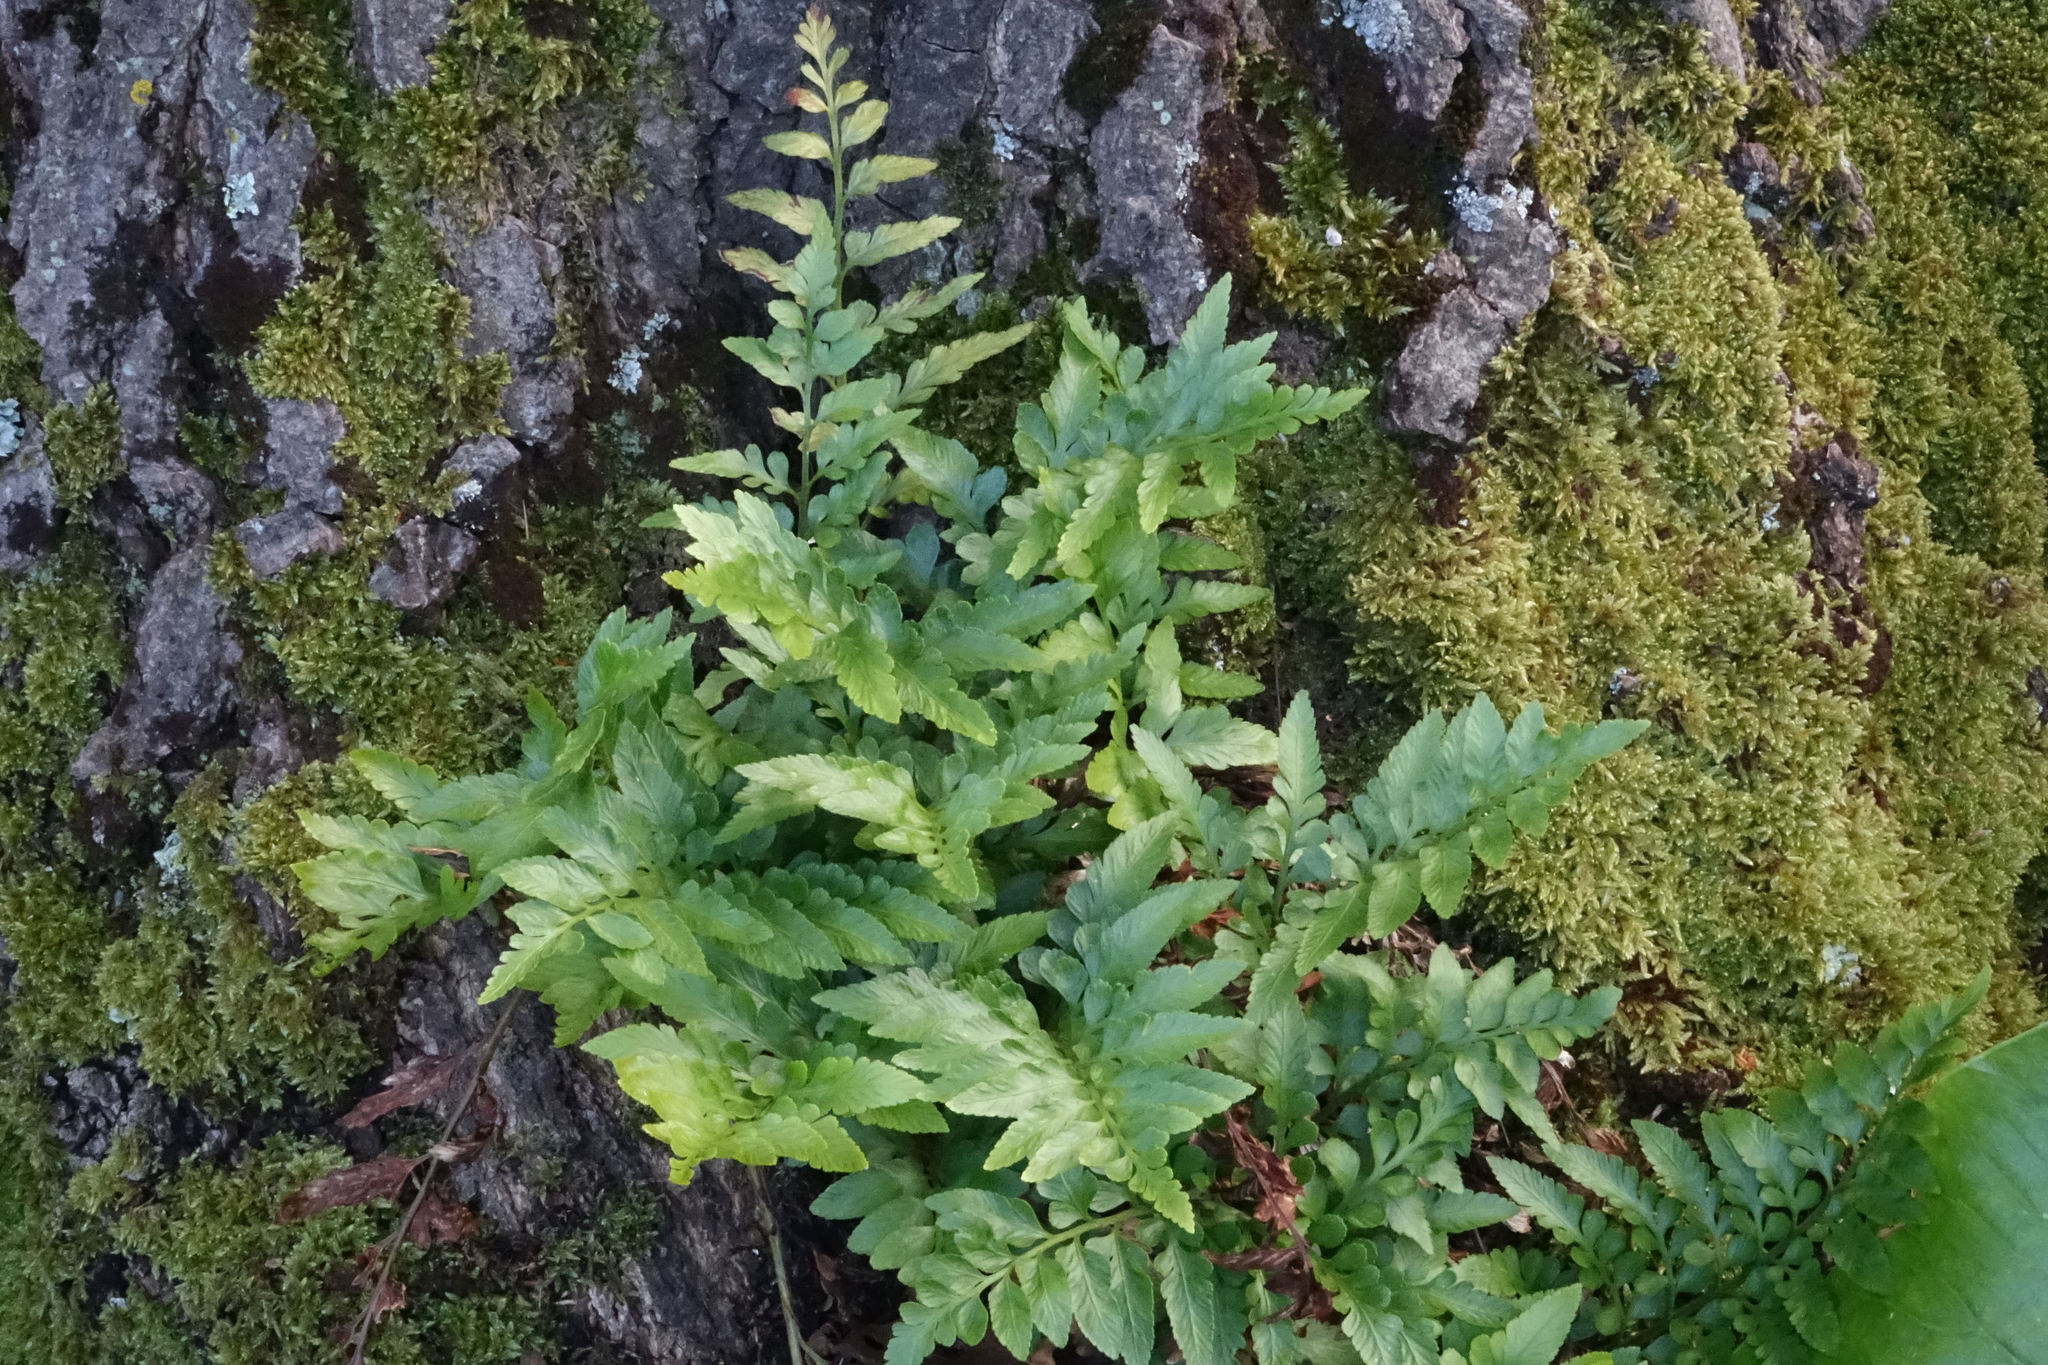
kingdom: Plantae
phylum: Tracheophyta
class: Polypodiopsida
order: Polypodiales
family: Aspleniaceae
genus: Asplenium
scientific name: Asplenium lyallii
